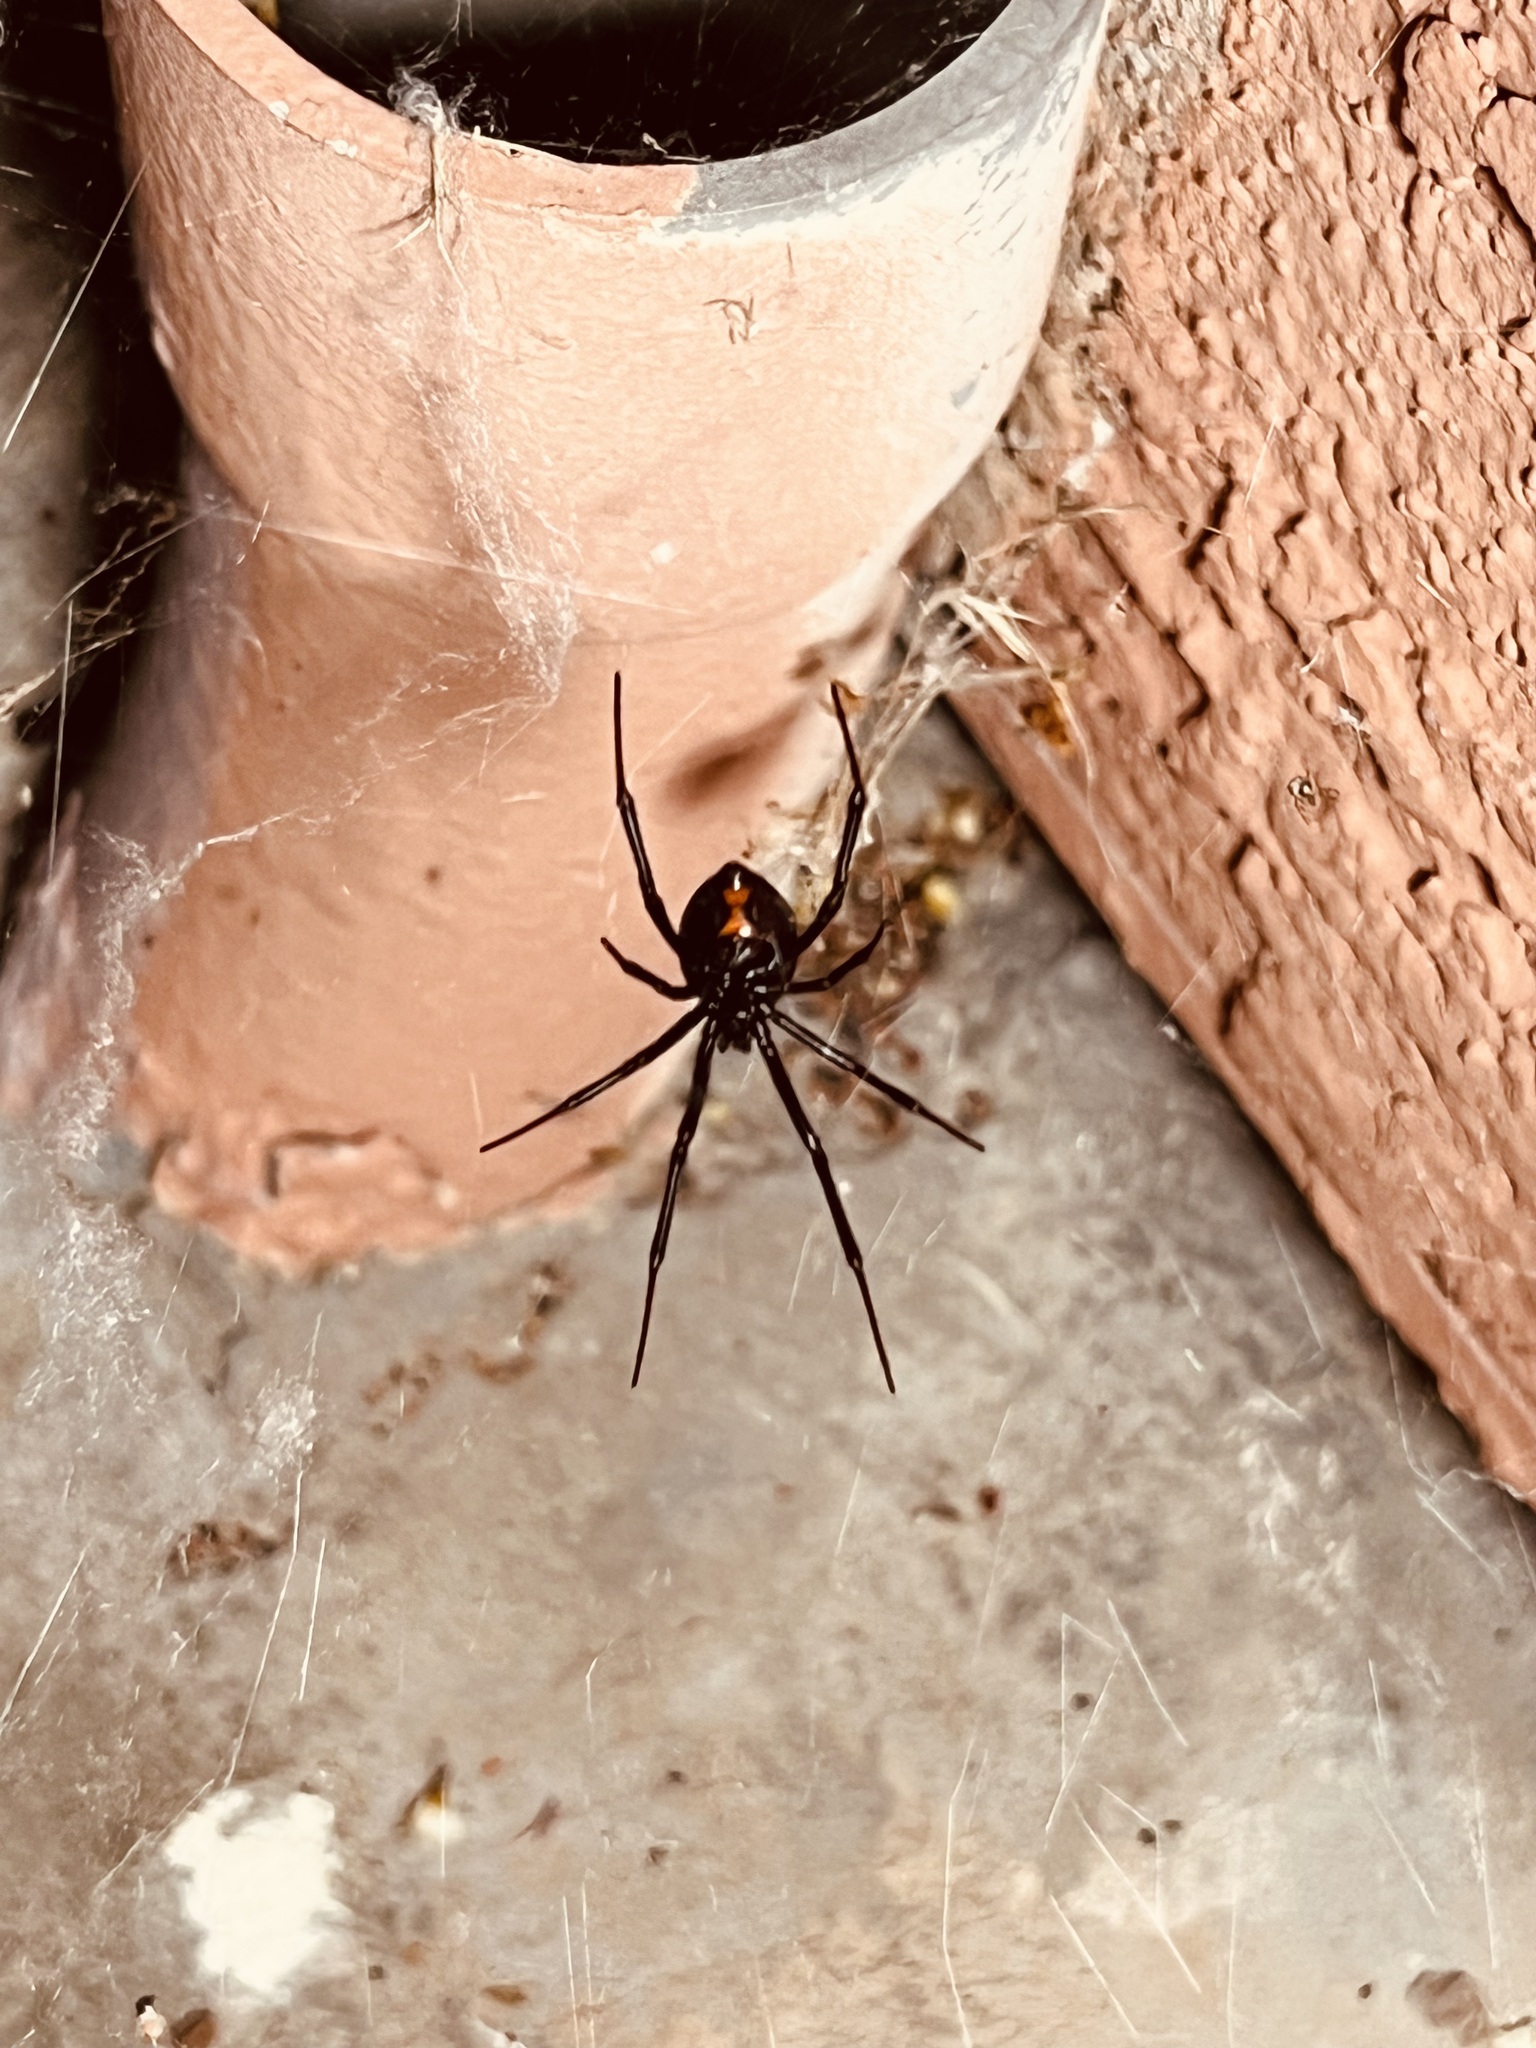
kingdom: Animalia
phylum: Arthropoda
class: Arachnida
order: Araneae
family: Theridiidae
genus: Latrodectus
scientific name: Latrodectus hesperus
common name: Western black widow
